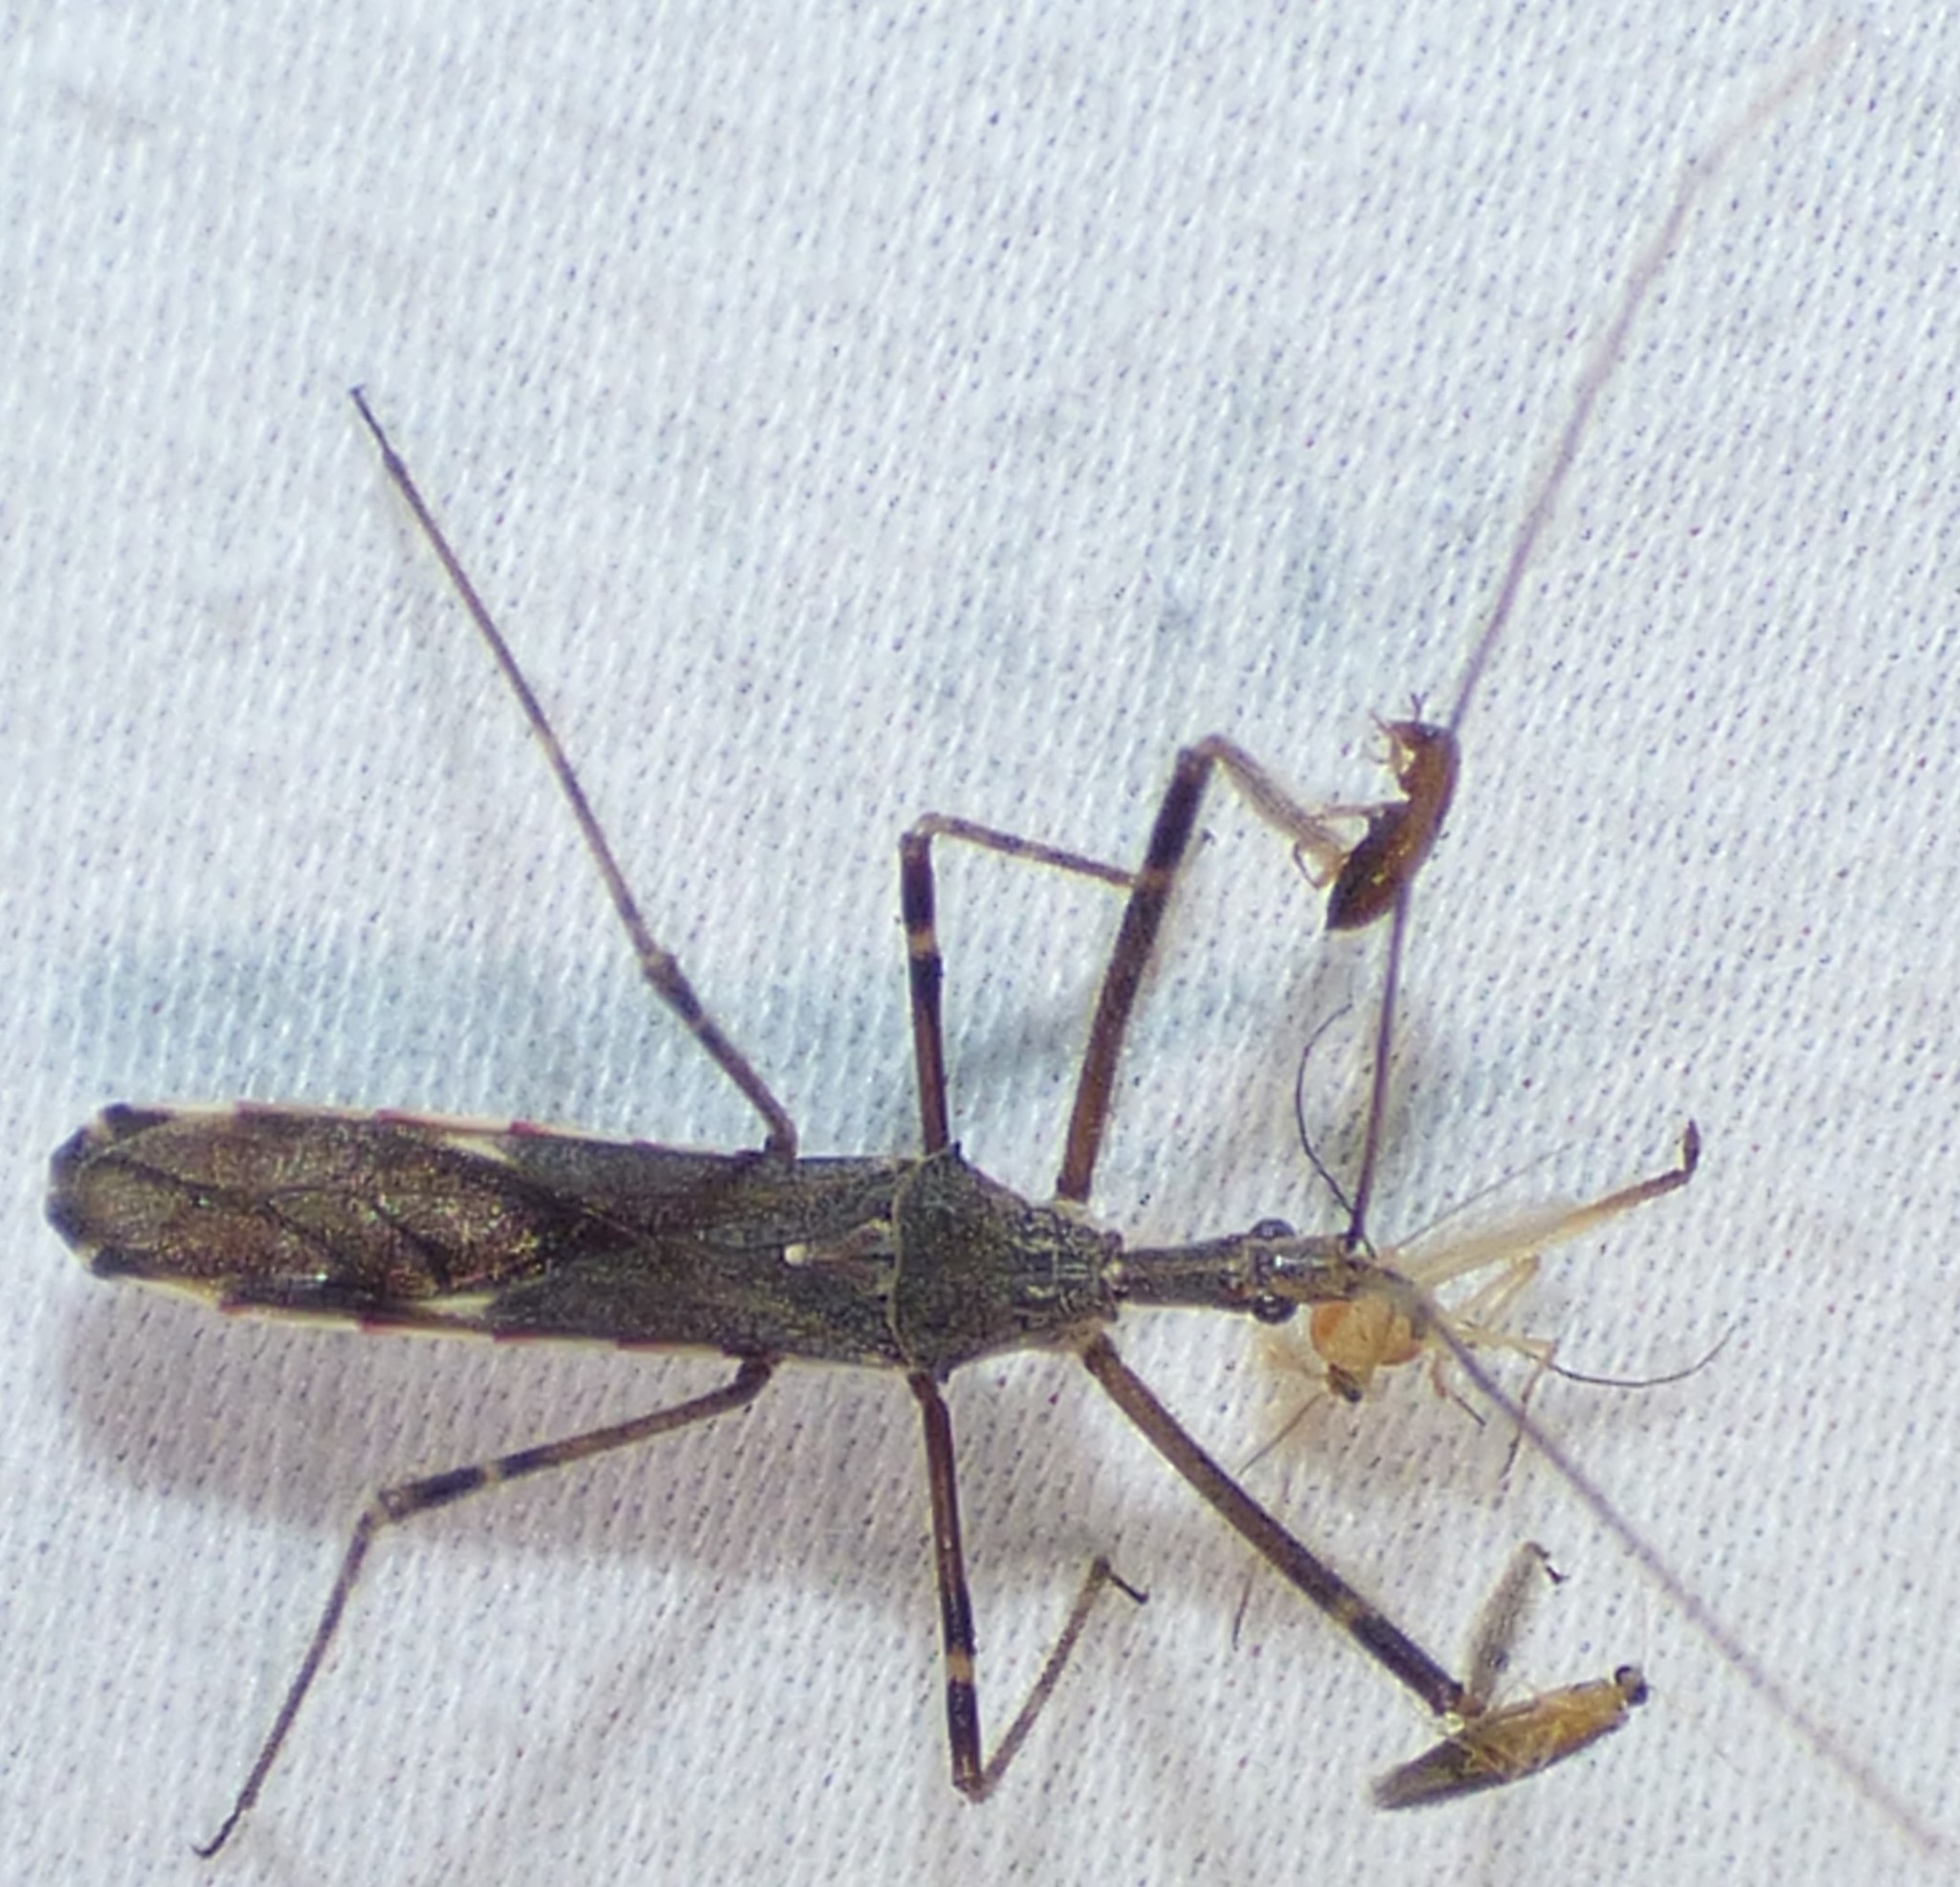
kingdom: Animalia
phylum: Arthropoda
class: Insecta
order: Hemiptera
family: Reduviidae
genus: Zelus
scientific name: Zelus tetracanthus
